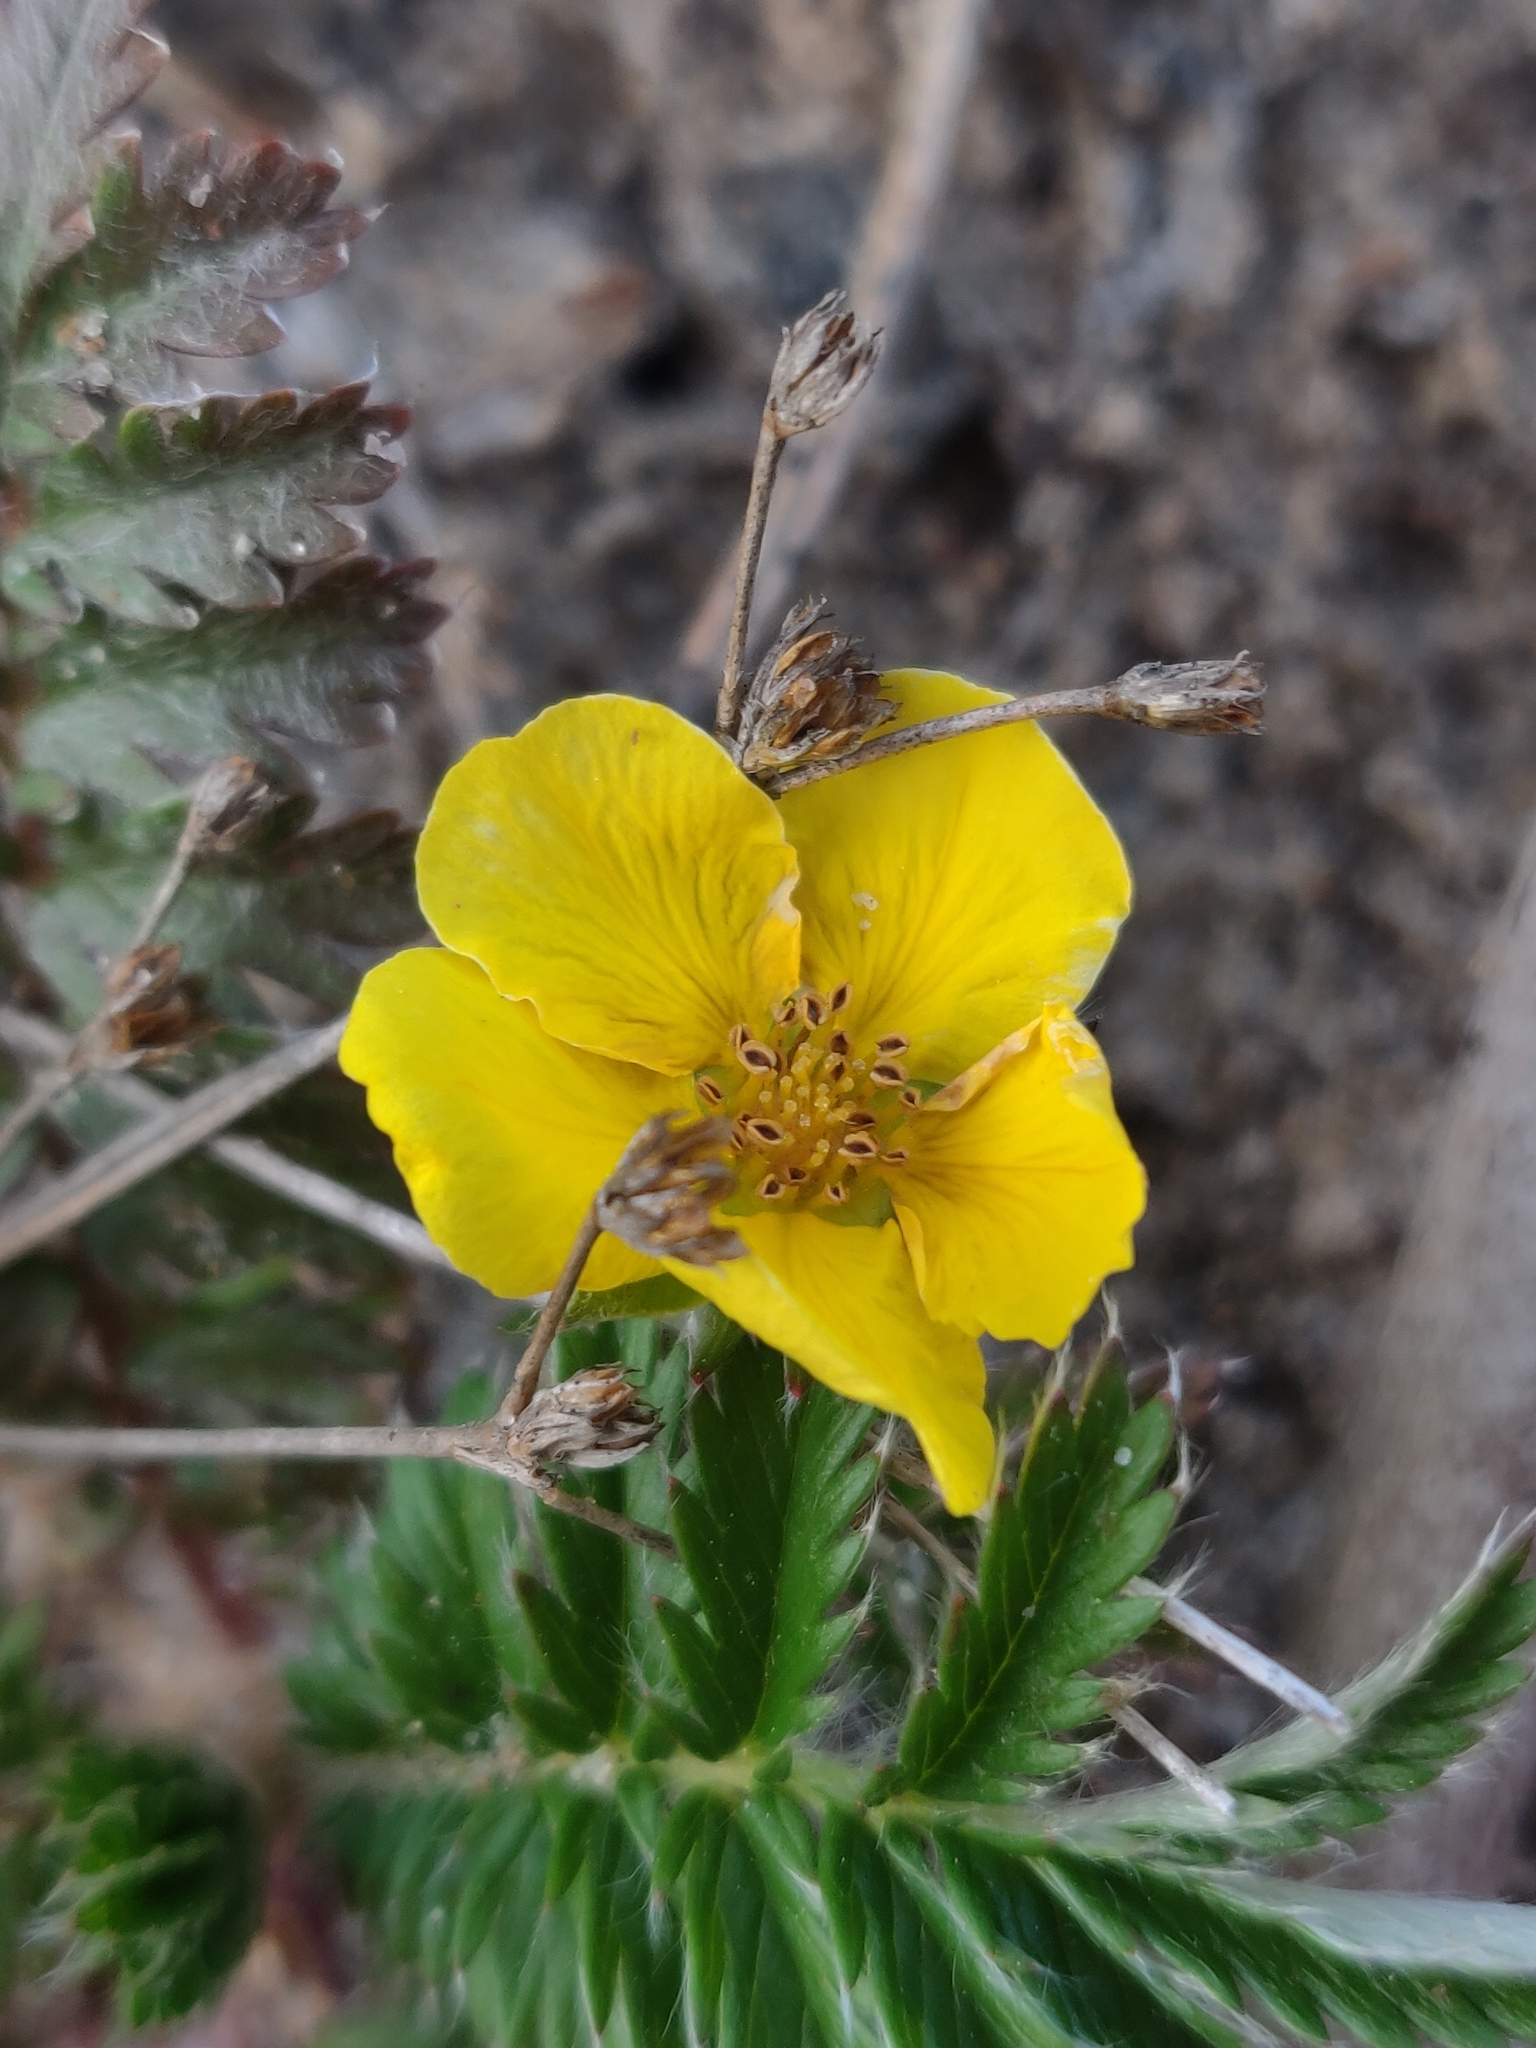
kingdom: Plantae
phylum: Tracheophyta
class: Magnoliopsida
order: Rosales
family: Rosaceae
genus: Argentina
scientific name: Argentina anserina
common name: Common silverweed
